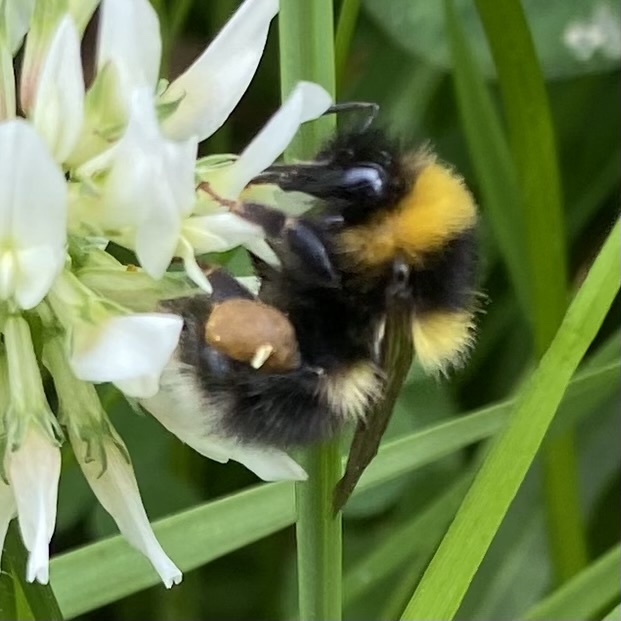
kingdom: Animalia
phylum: Arthropoda
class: Insecta
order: Hymenoptera
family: Apidae
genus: Bombus
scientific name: Bombus jonellus
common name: Heath humble-bee
